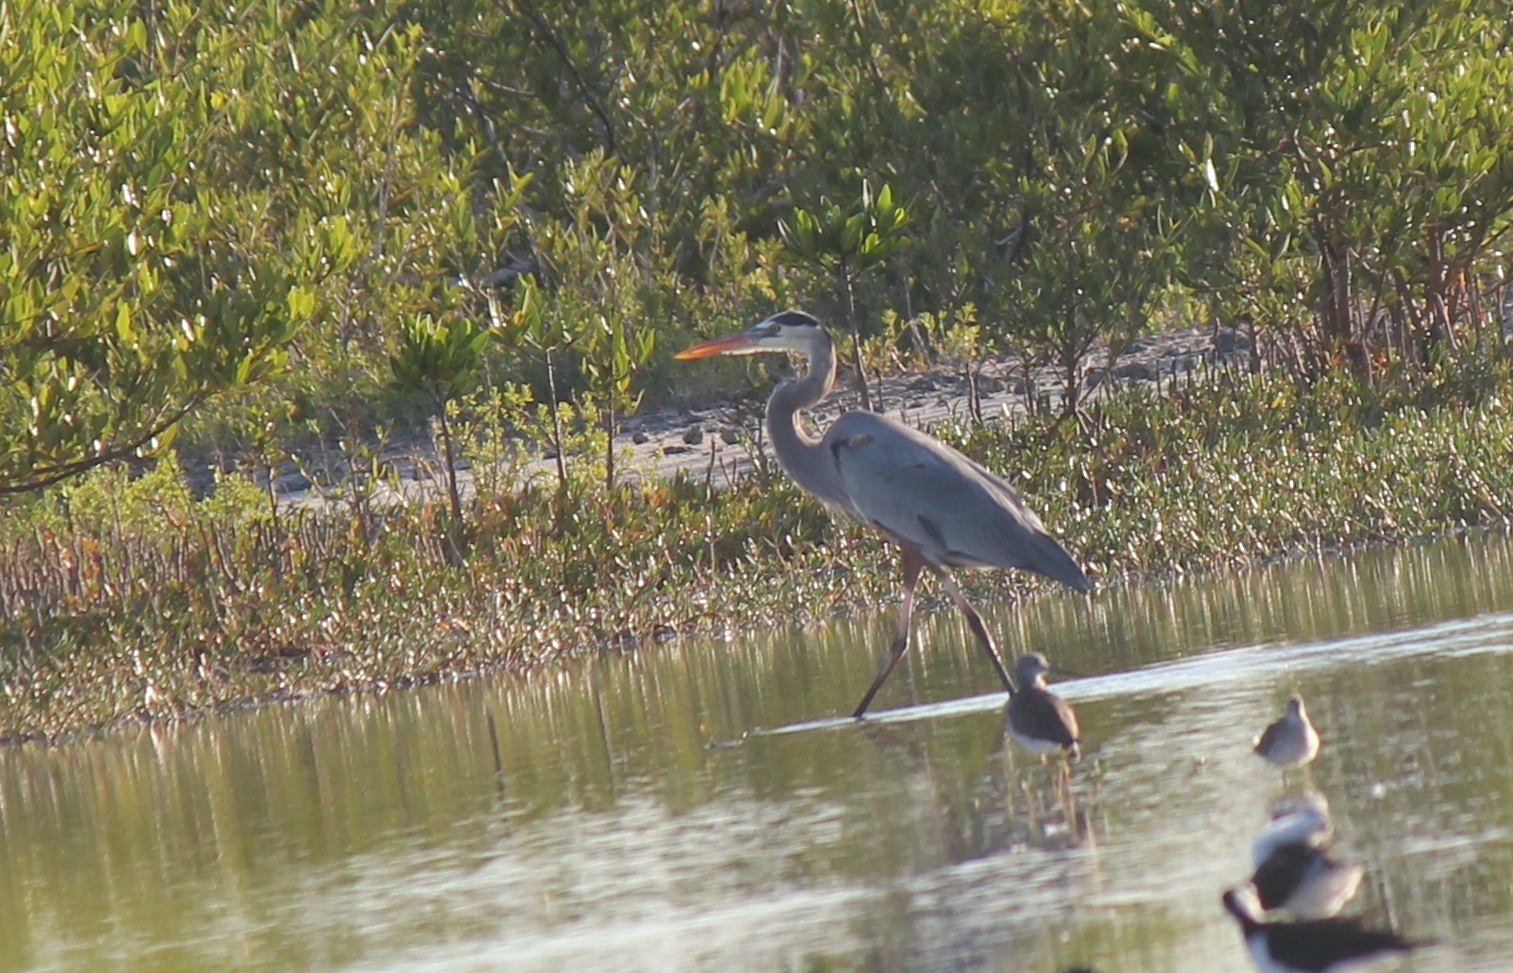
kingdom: Animalia
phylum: Chordata
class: Aves
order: Pelecaniformes
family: Ardeidae
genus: Ardea
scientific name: Ardea herodias
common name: Great blue heron
